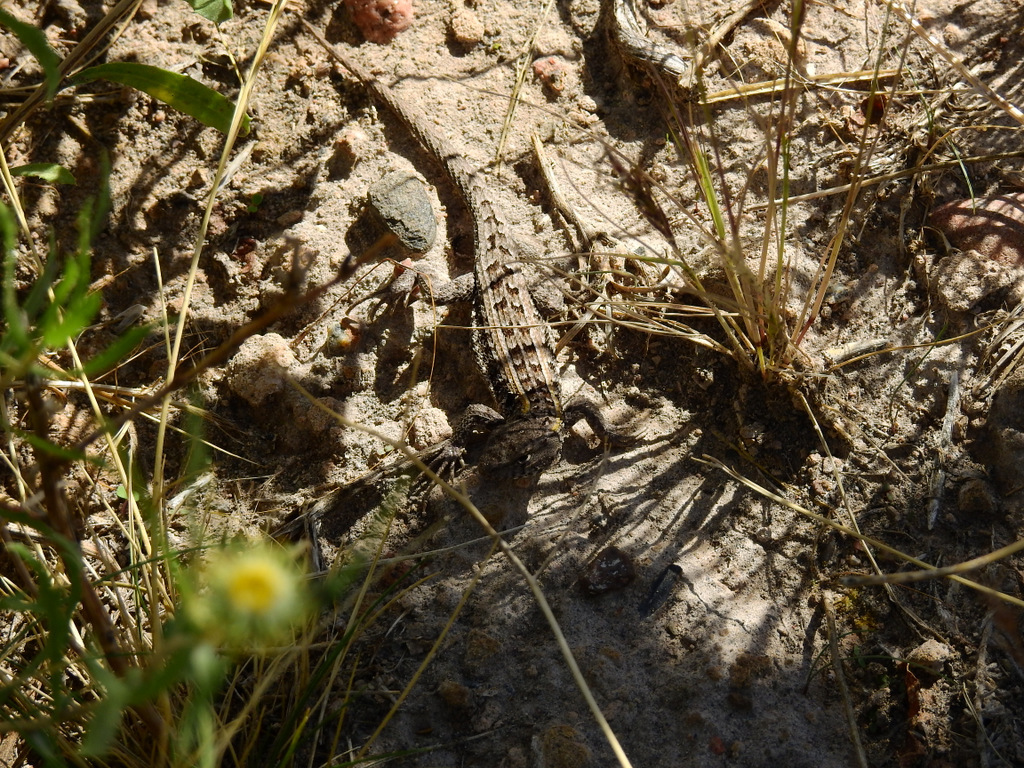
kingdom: Animalia
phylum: Chordata
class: Squamata
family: Liolaemidae
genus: Liolaemus
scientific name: Liolaemus wiegmannii
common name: Wiegmann's tree iguana
